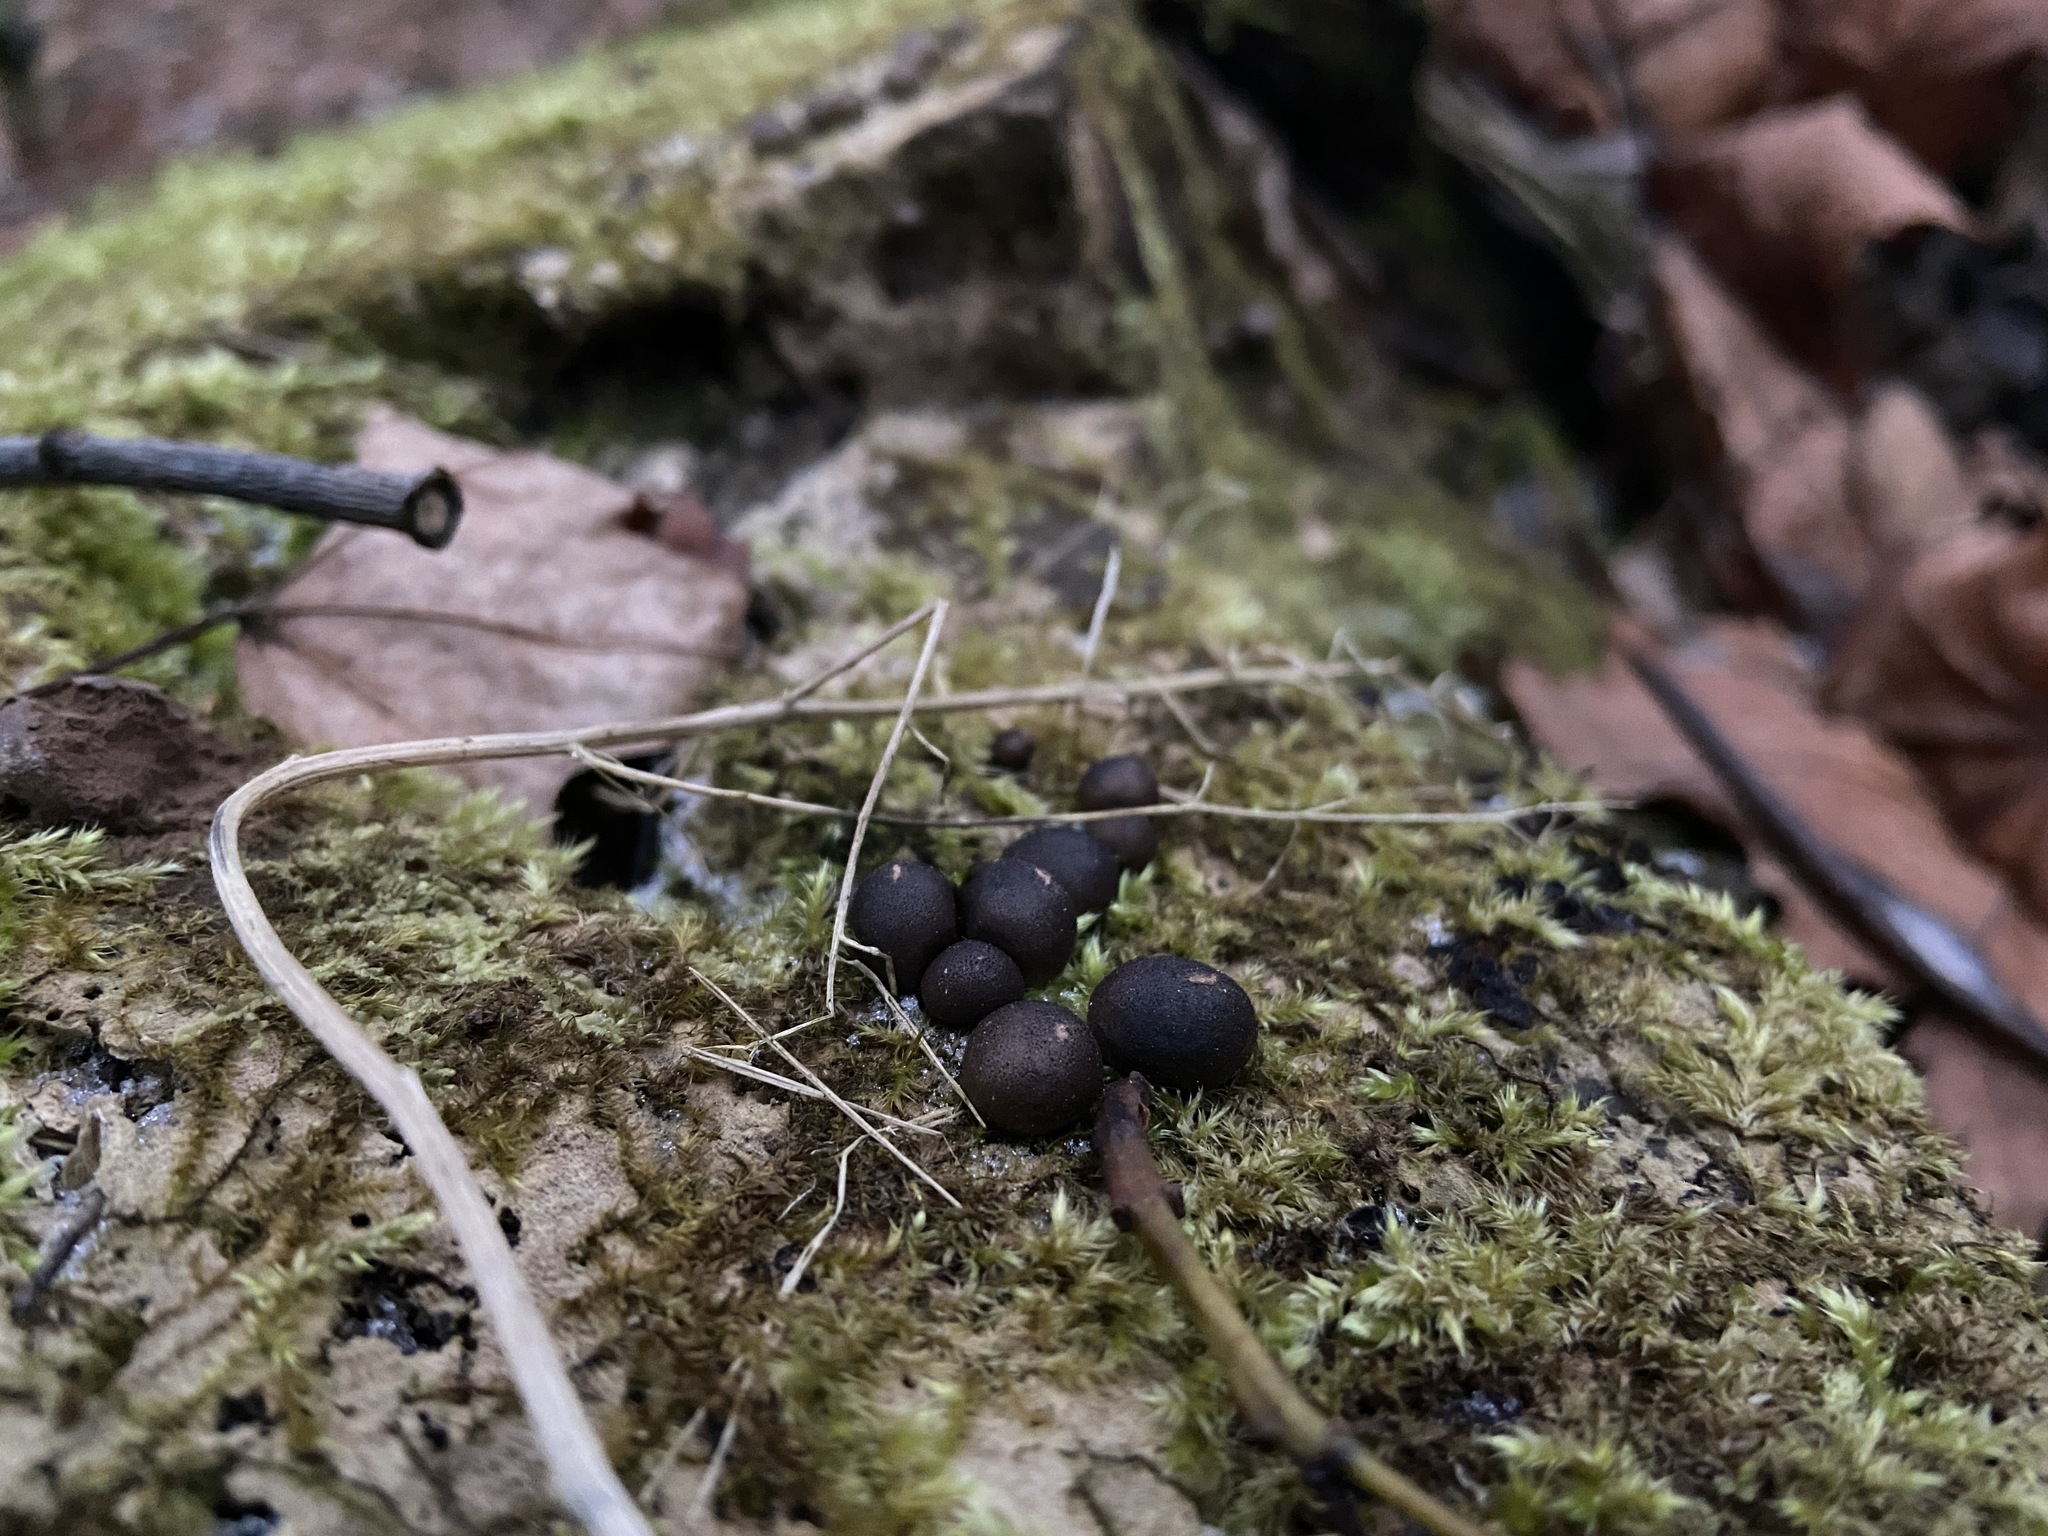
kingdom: Protozoa
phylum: Mycetozoa
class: Myxomycetes
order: Cribrariales
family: Tubiferaceae
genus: Lycogala
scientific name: Lycogala epidendrum
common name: Wolf's milk
